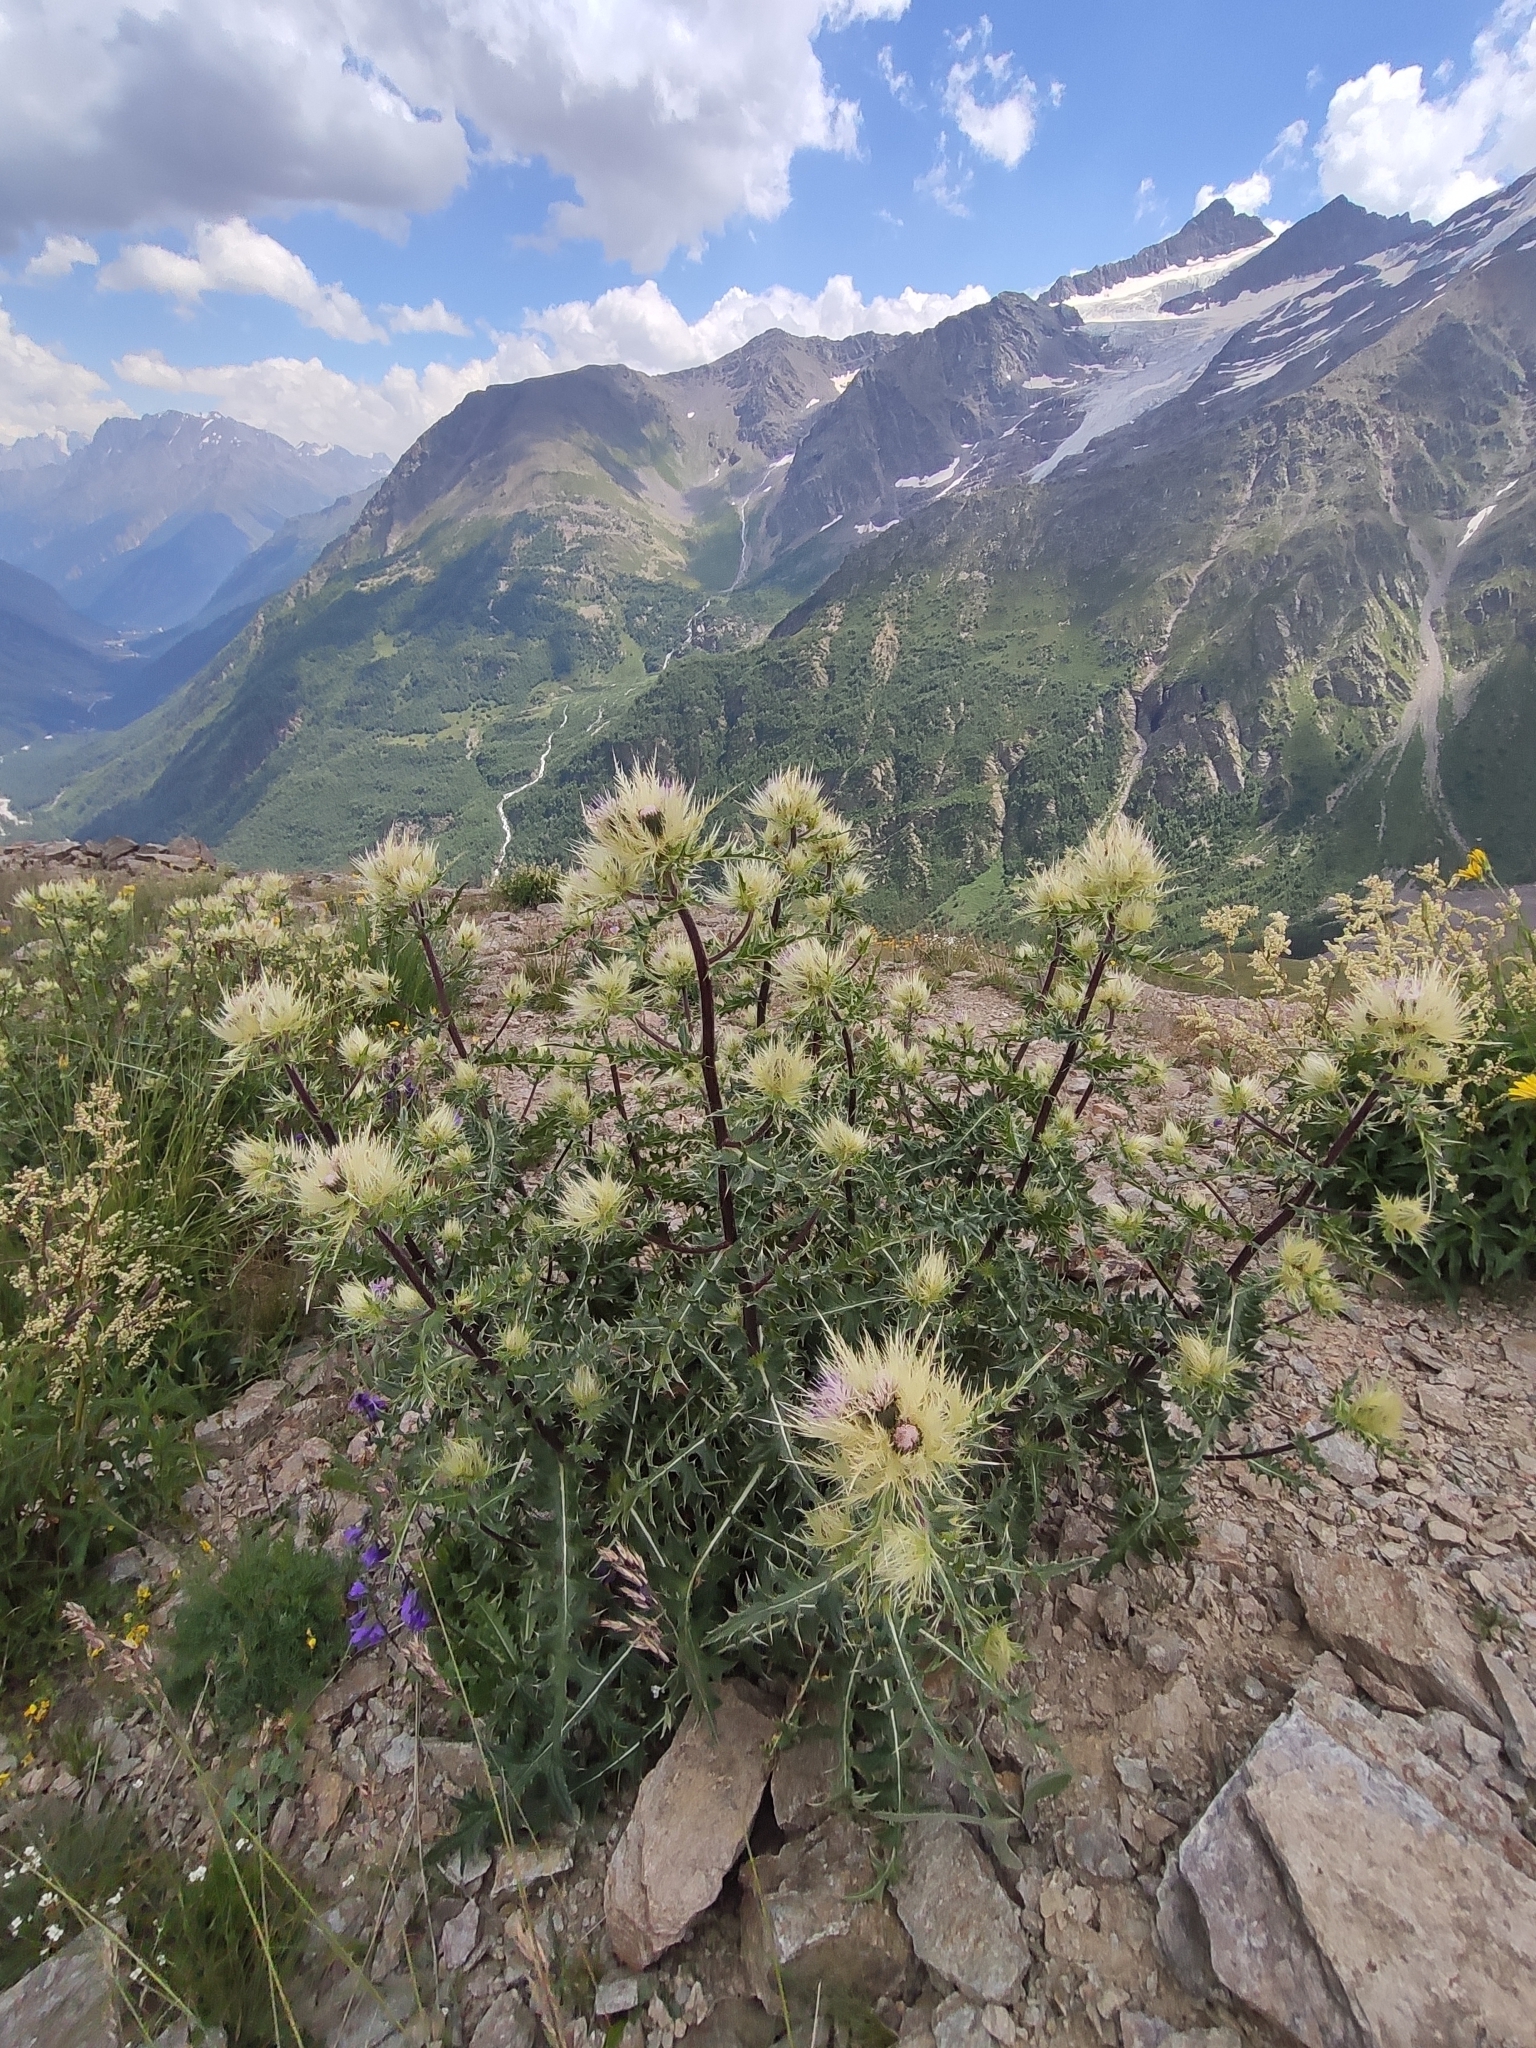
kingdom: Plantae
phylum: Tracheophyta
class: Magnoliopsida
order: Asterales
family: Asteraceae
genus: Cirsium
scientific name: Cirsium obvallatum
